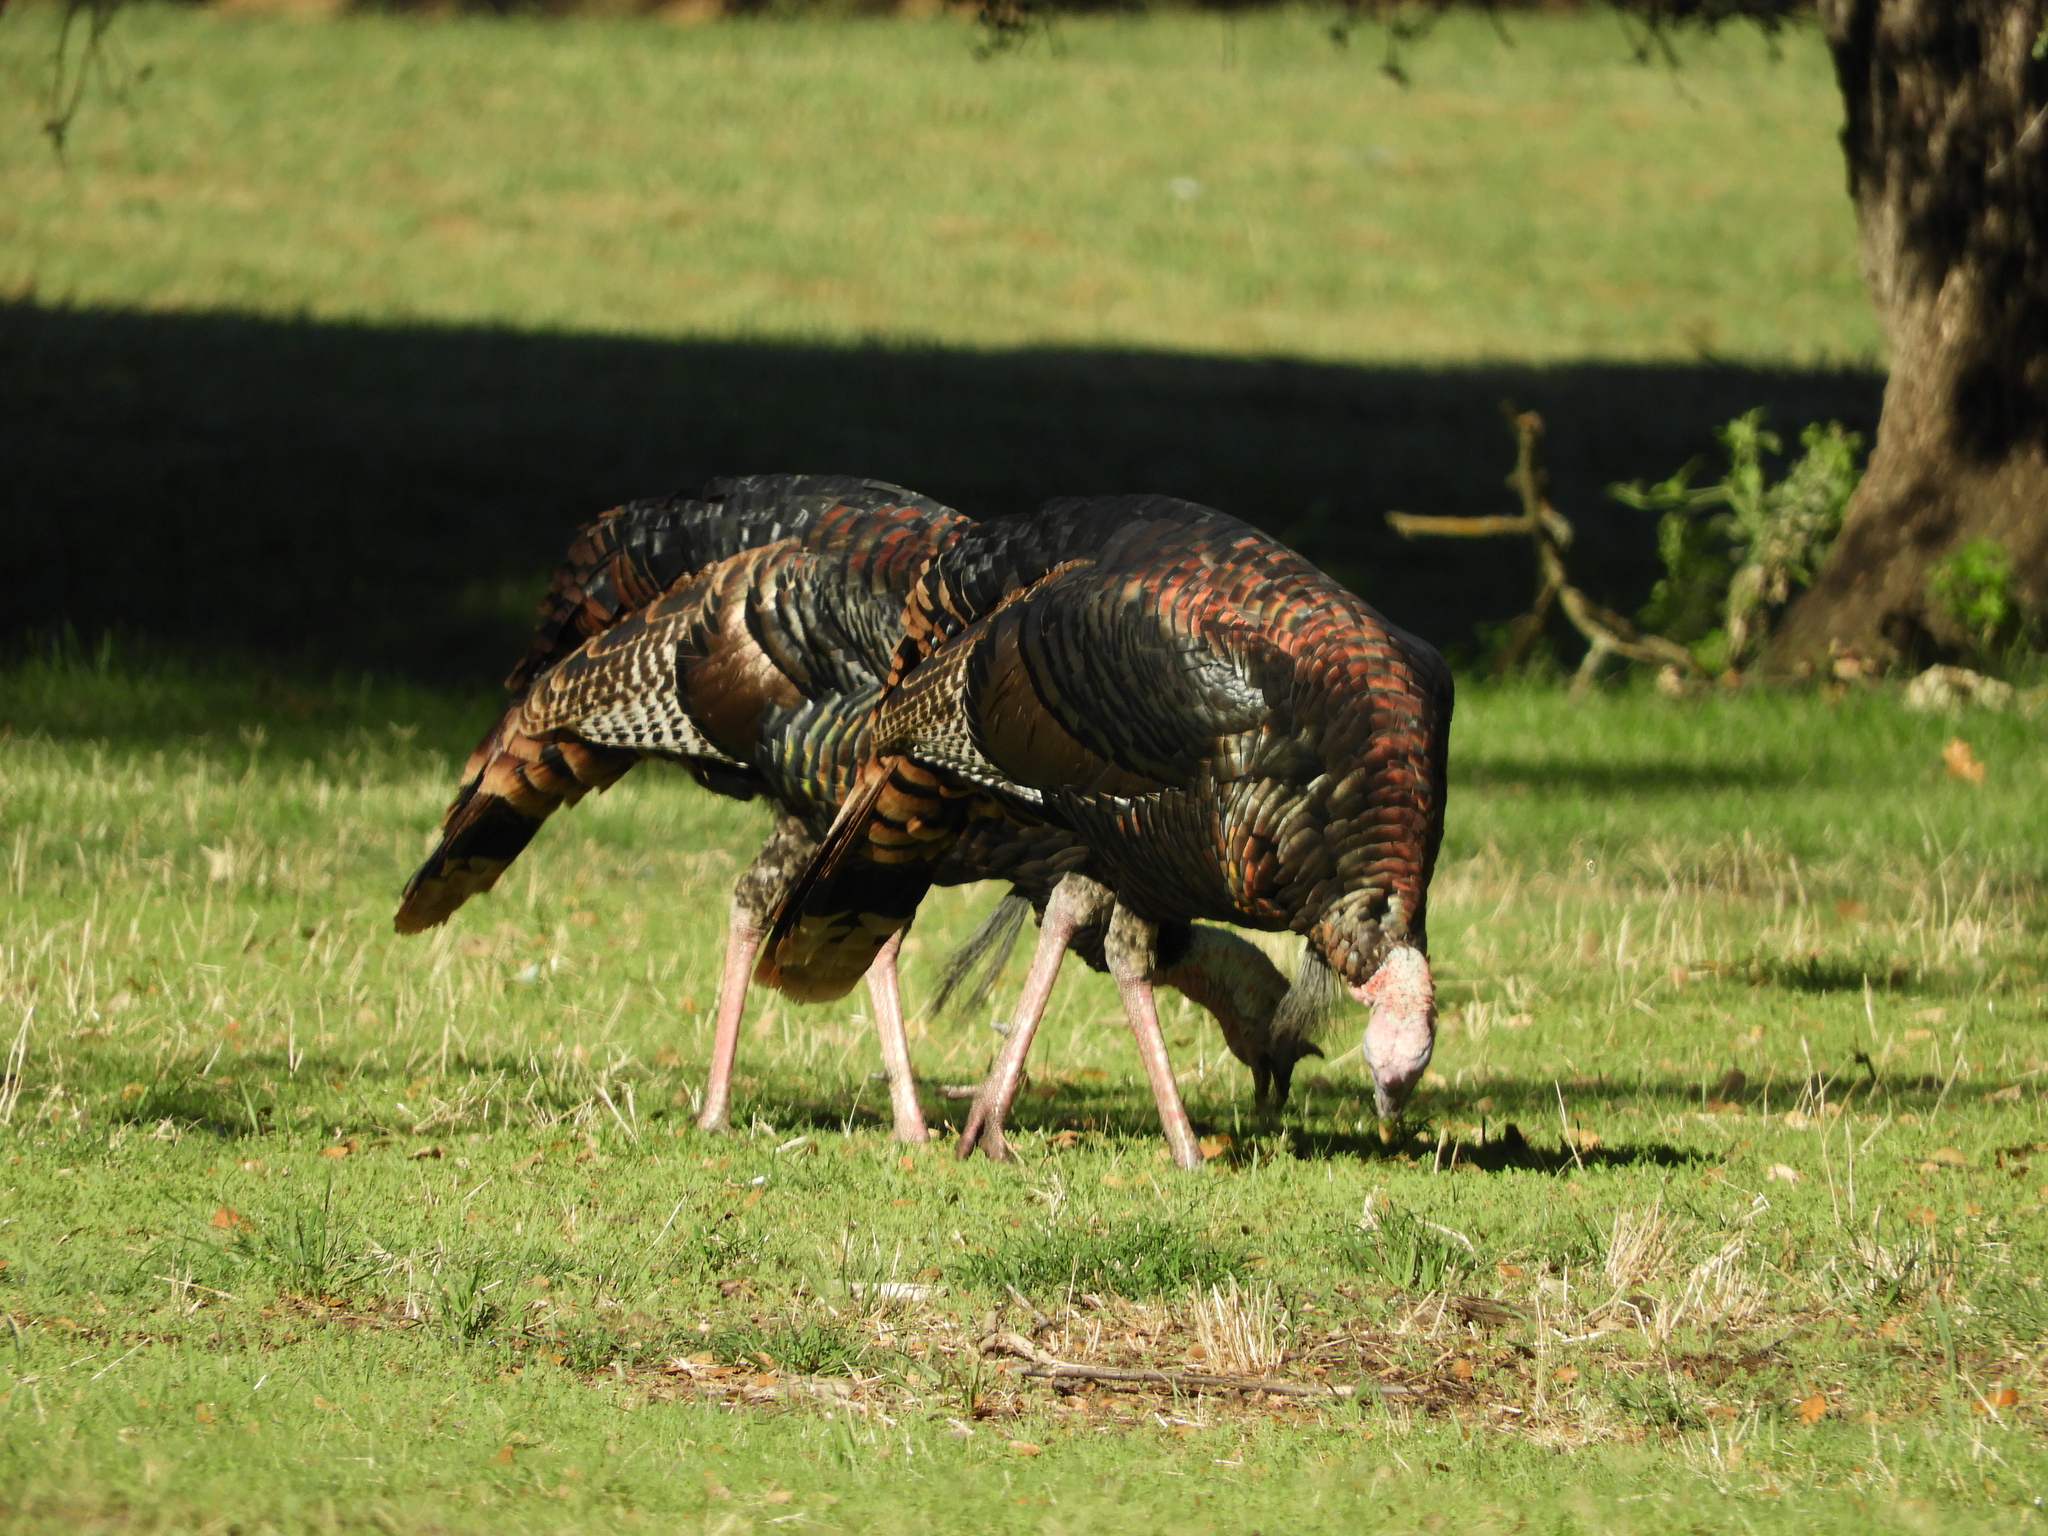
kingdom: Animalia
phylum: Chordata
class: Aves
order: Galliformes
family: Phasianidae
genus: Meleagris
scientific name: Meleagris gallopavo
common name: Wild turkey
